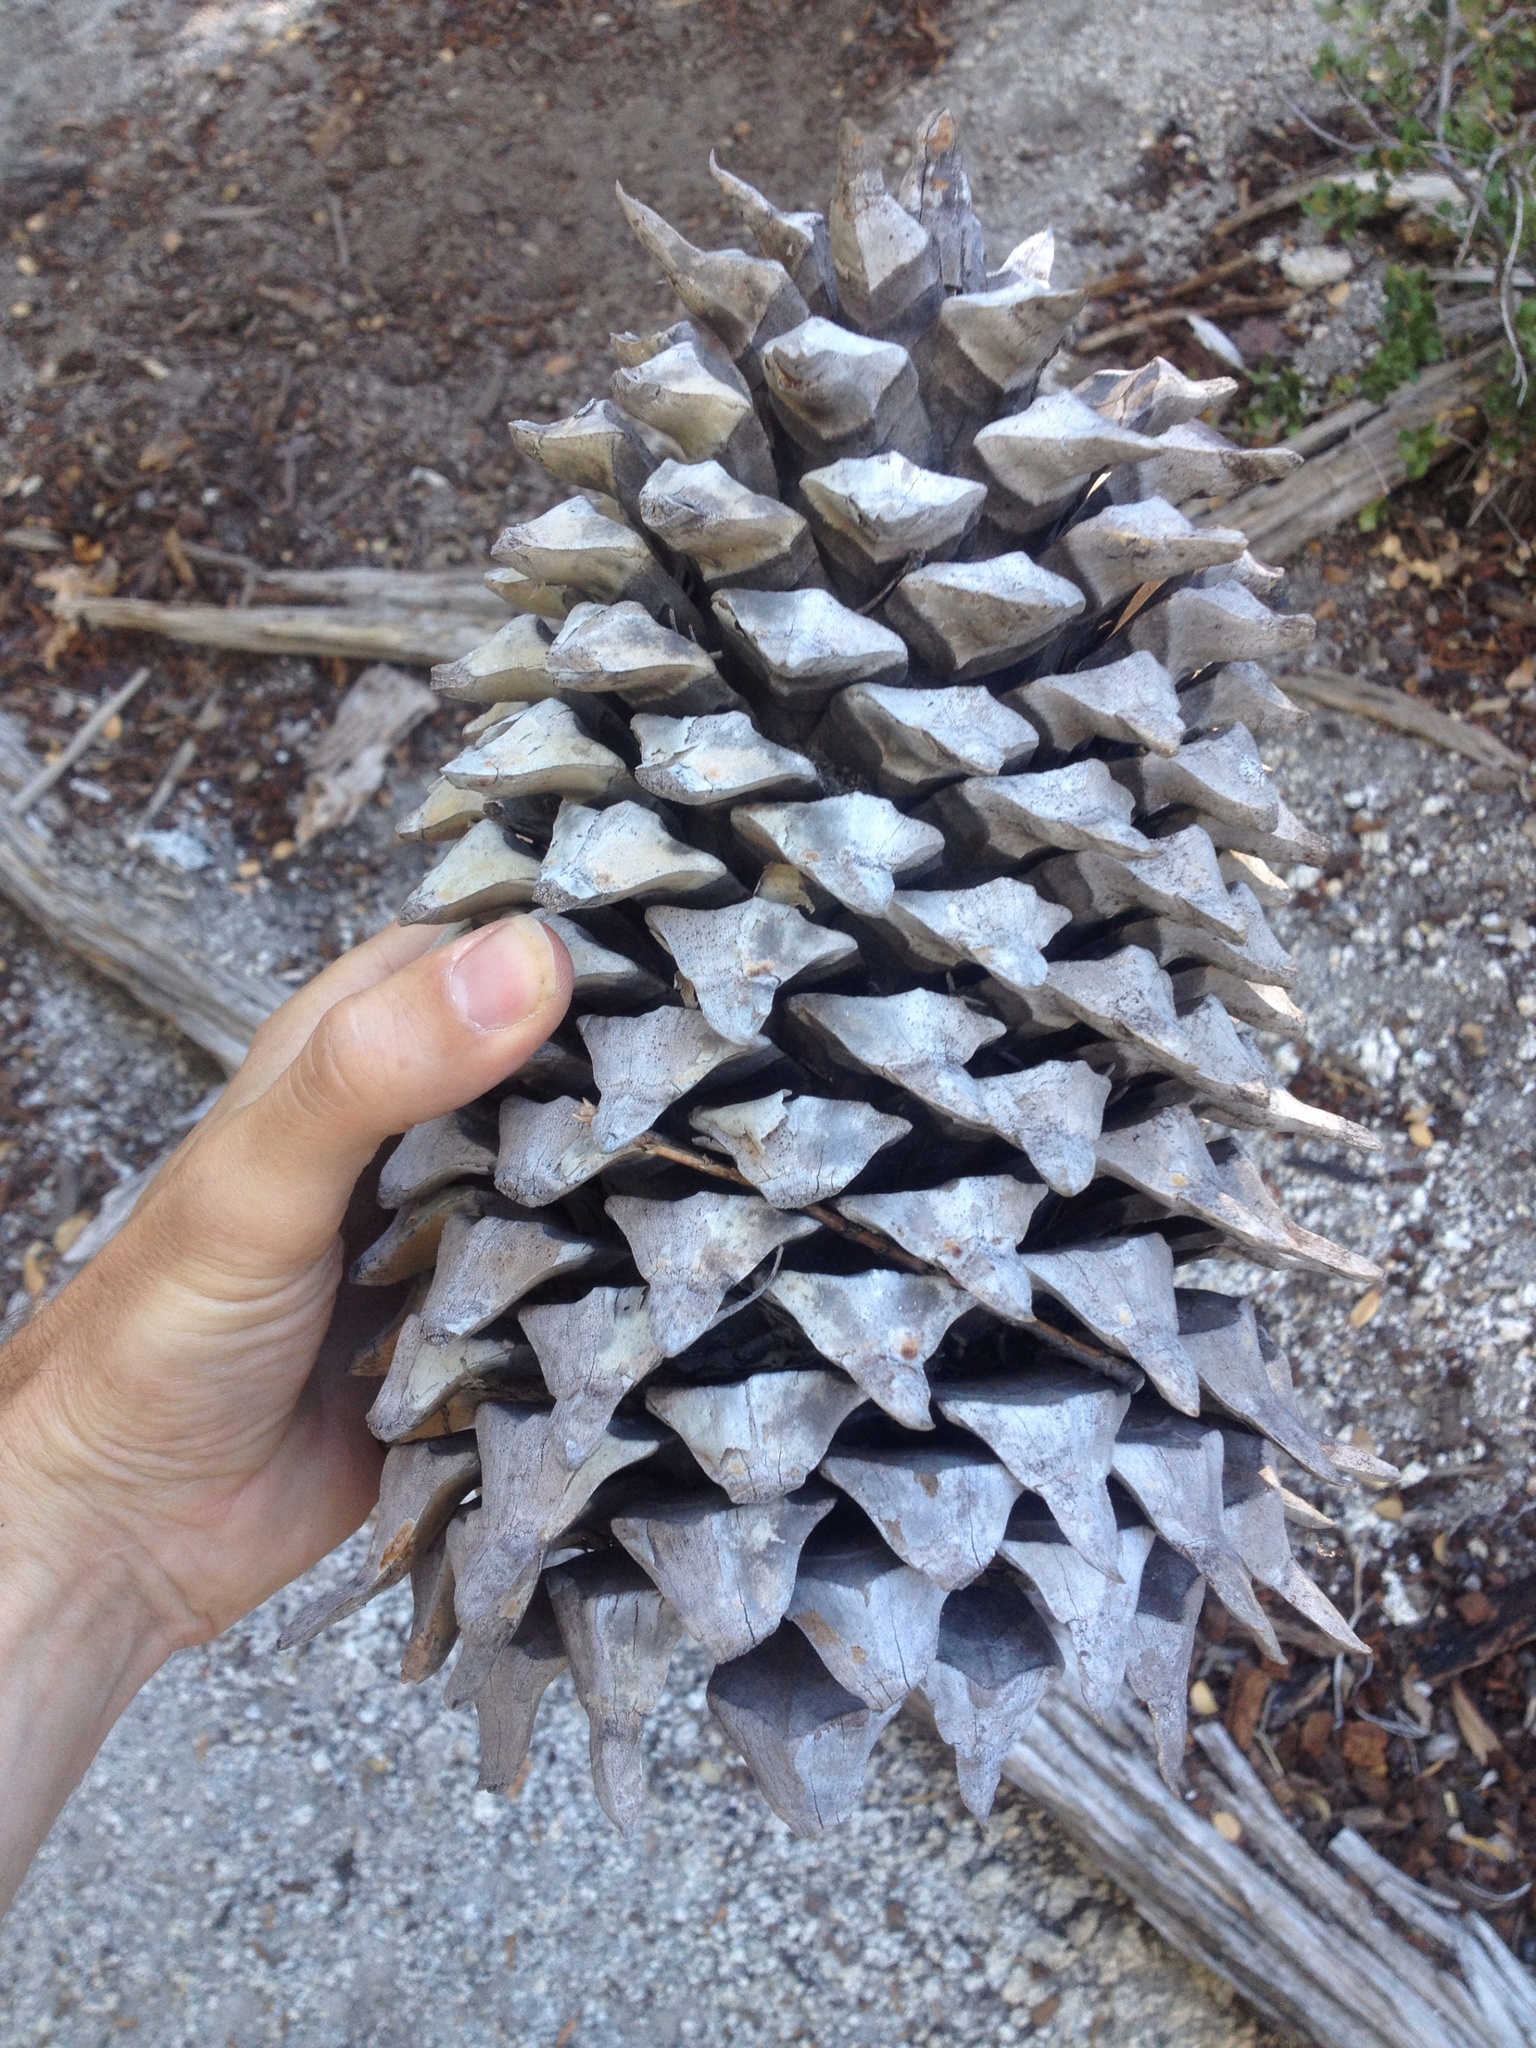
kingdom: Plantae
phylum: Tracheophyta
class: Pinopsida
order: Pinales
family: Pinaceae
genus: Pinus
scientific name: Pinus coulteri
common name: Coulter pine
